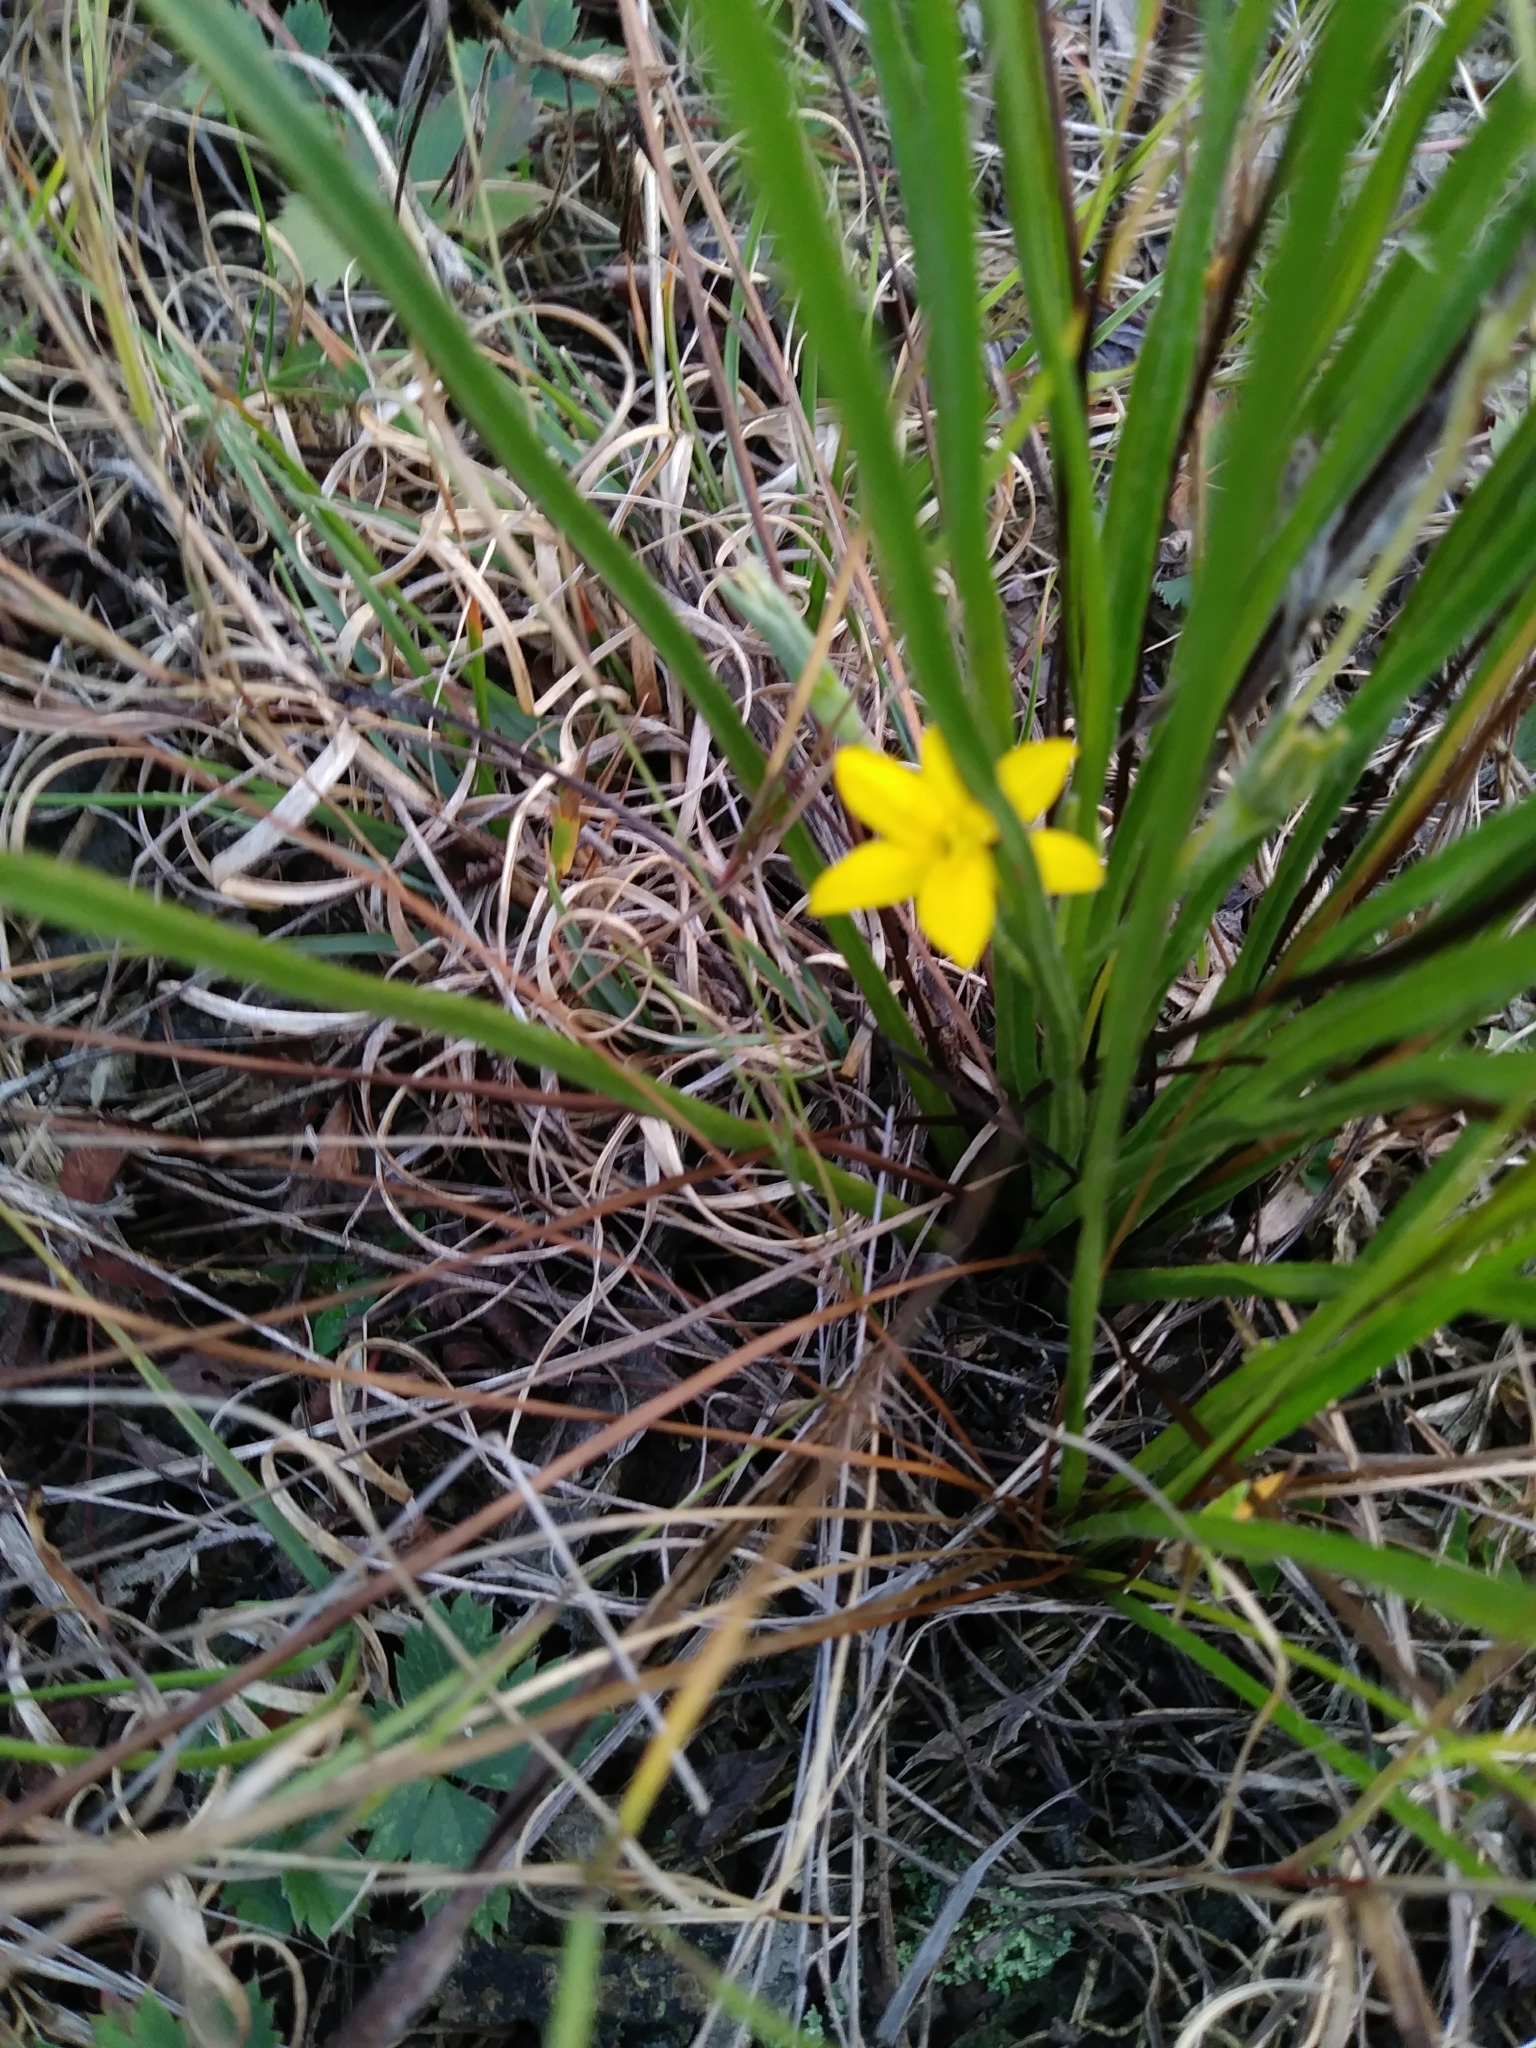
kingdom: Plantae
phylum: Tracheophyta
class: Liliopsida
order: Asparagales
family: Hypoxidaceae
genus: Hypoxis
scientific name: Hypoxis hirsuta
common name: Common goldstar
